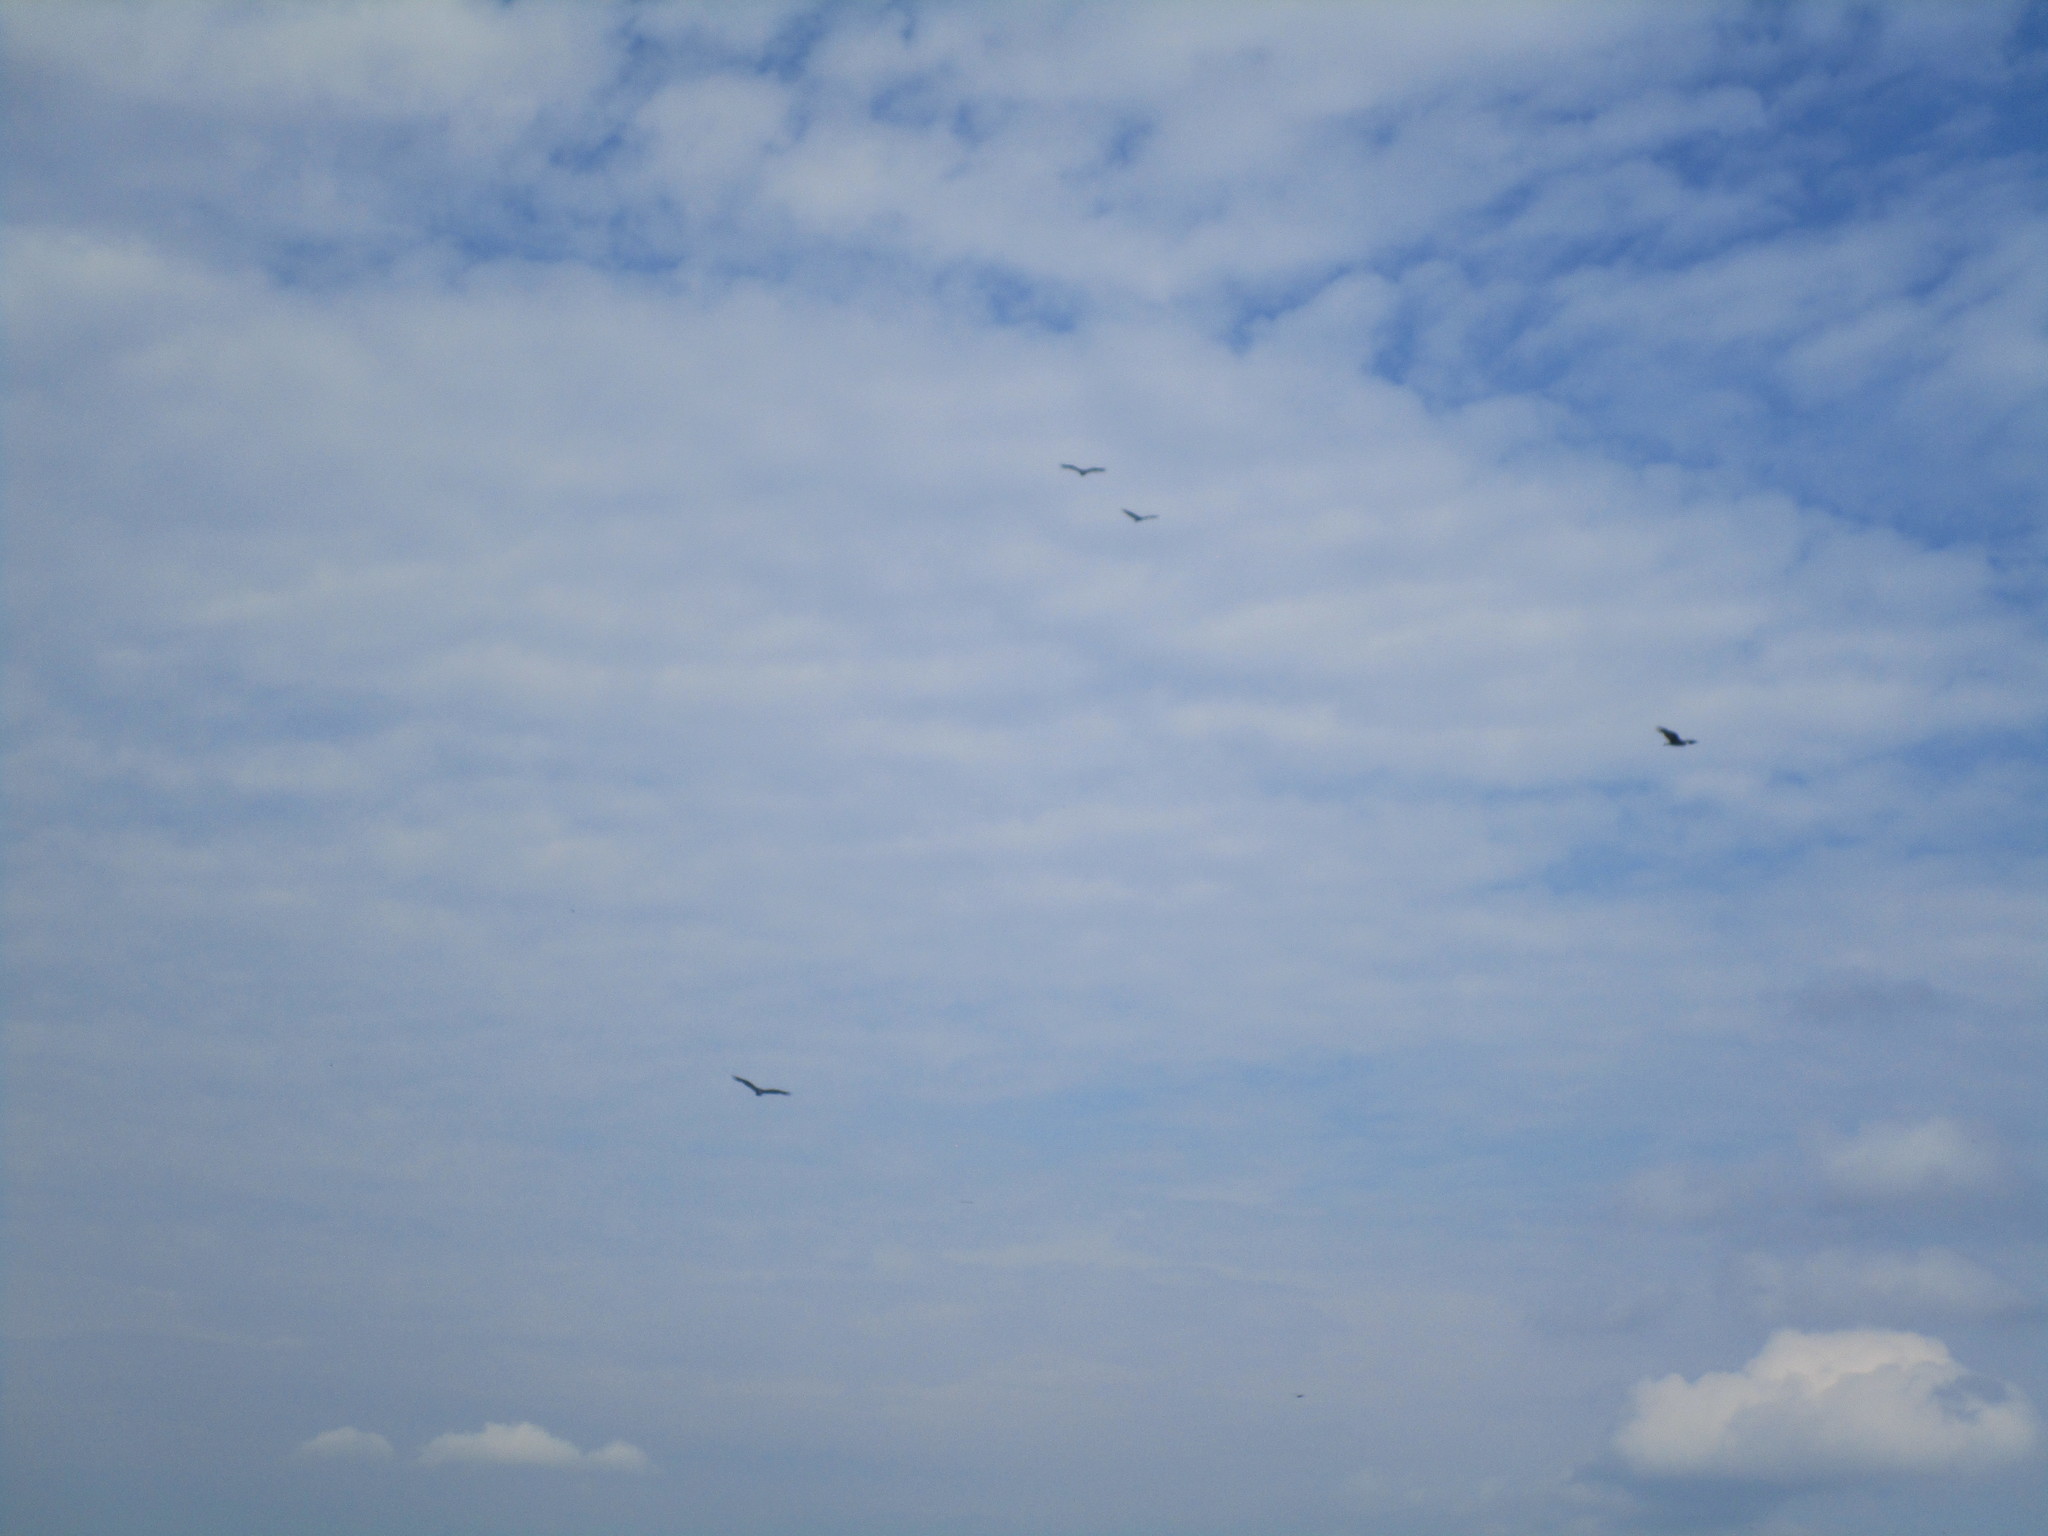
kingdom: Animalia
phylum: Chordata
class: Aves
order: Accipitriformes
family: Cathartidae
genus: Cathartes
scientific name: Cathartes aura
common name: Turkey vulture
